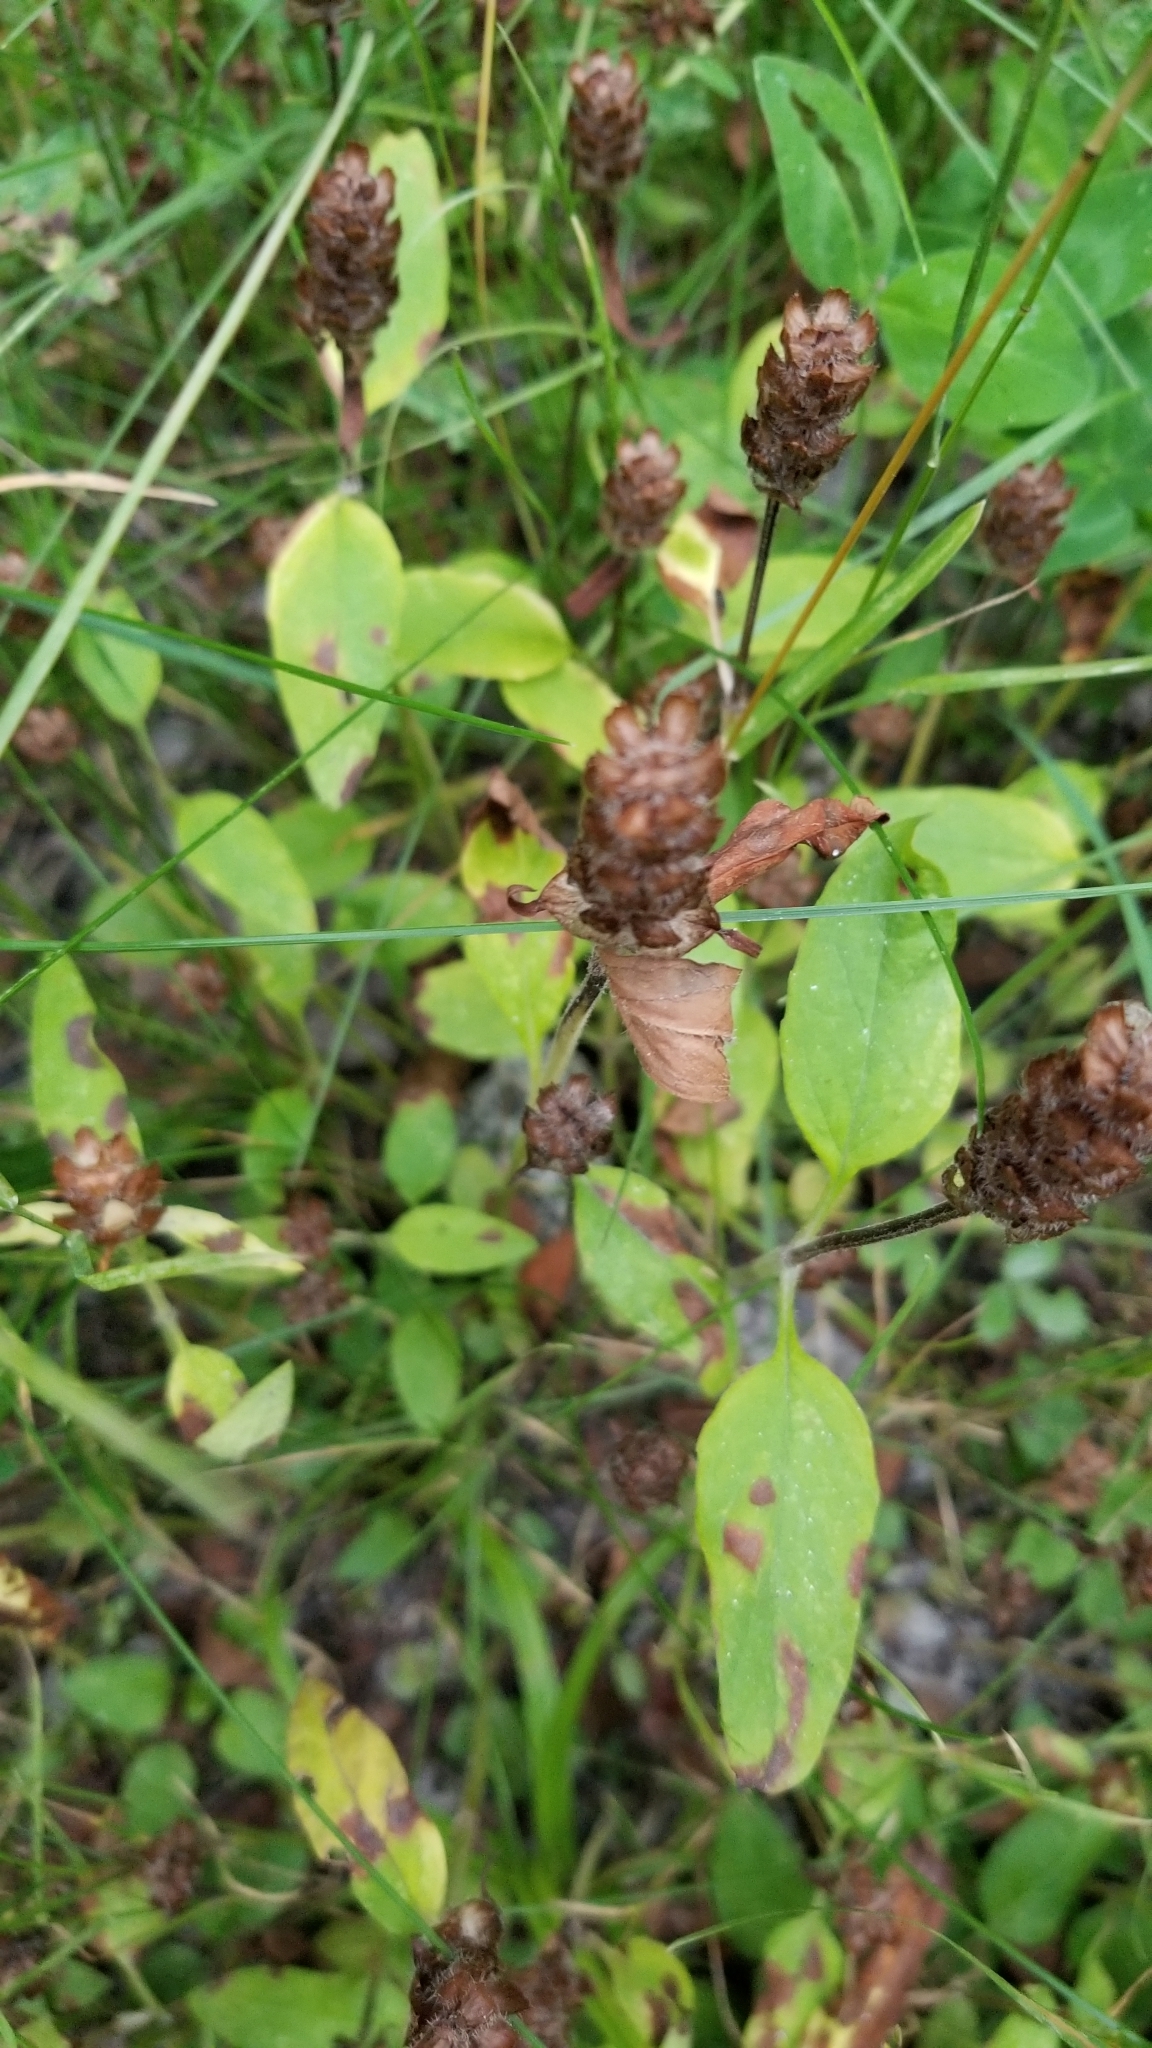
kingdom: Plantae
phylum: Tracheophyta
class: Magnoliopsida
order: Lamiales
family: Lamiaceae
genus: Prunella
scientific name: Prunella vulgaris
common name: Heal-all
